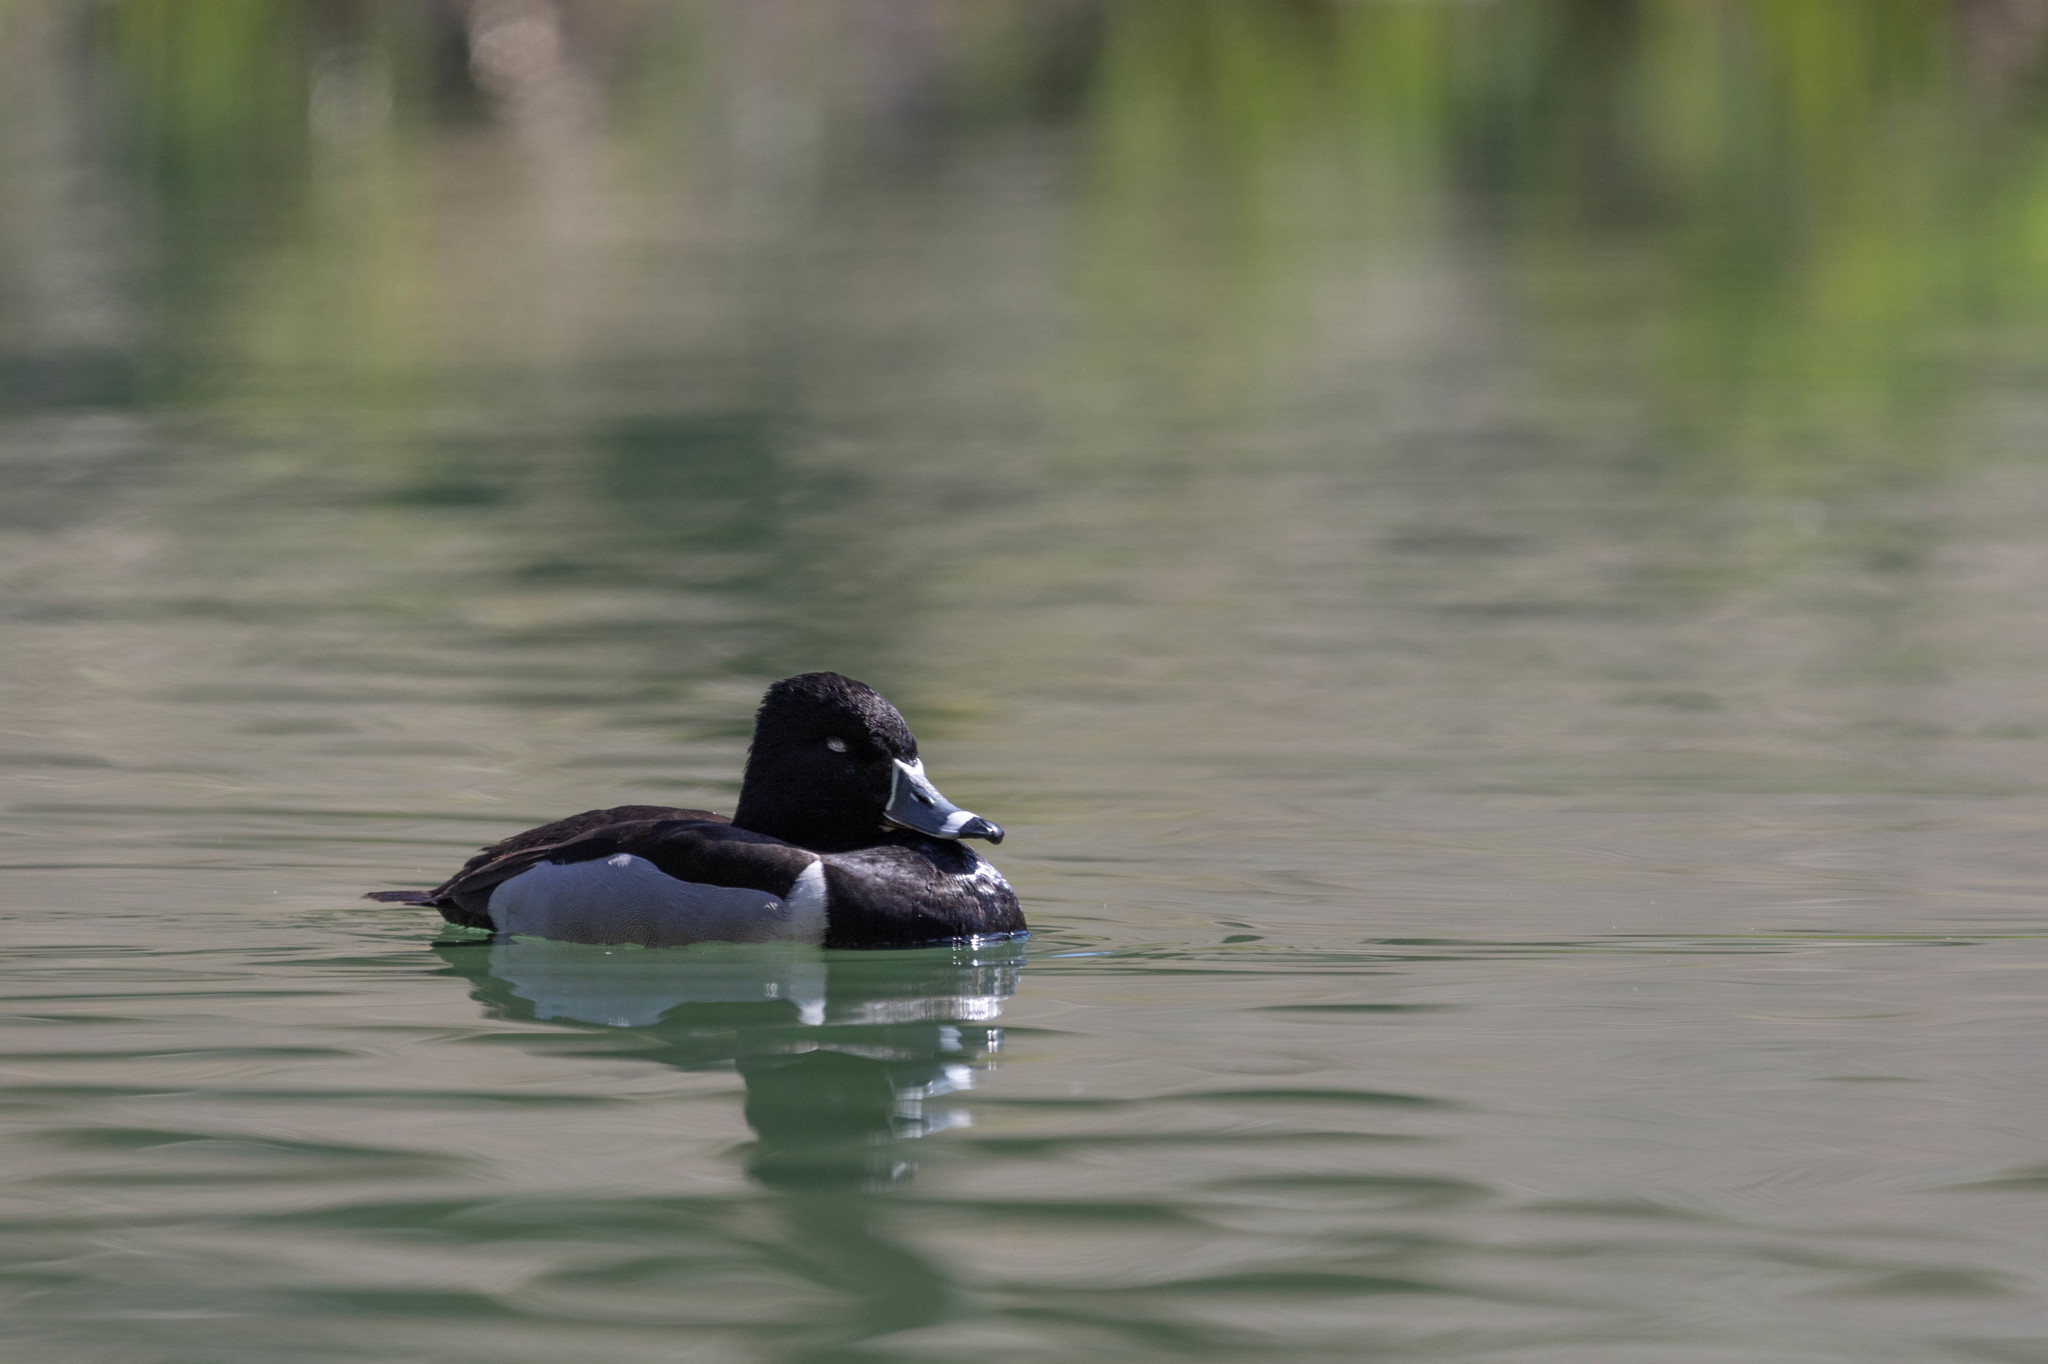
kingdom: Animalia
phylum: Chordata
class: Aves
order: Anseriformes
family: Anatidae
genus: Aythya
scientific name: Aythya collaris
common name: Ring-necked duck
